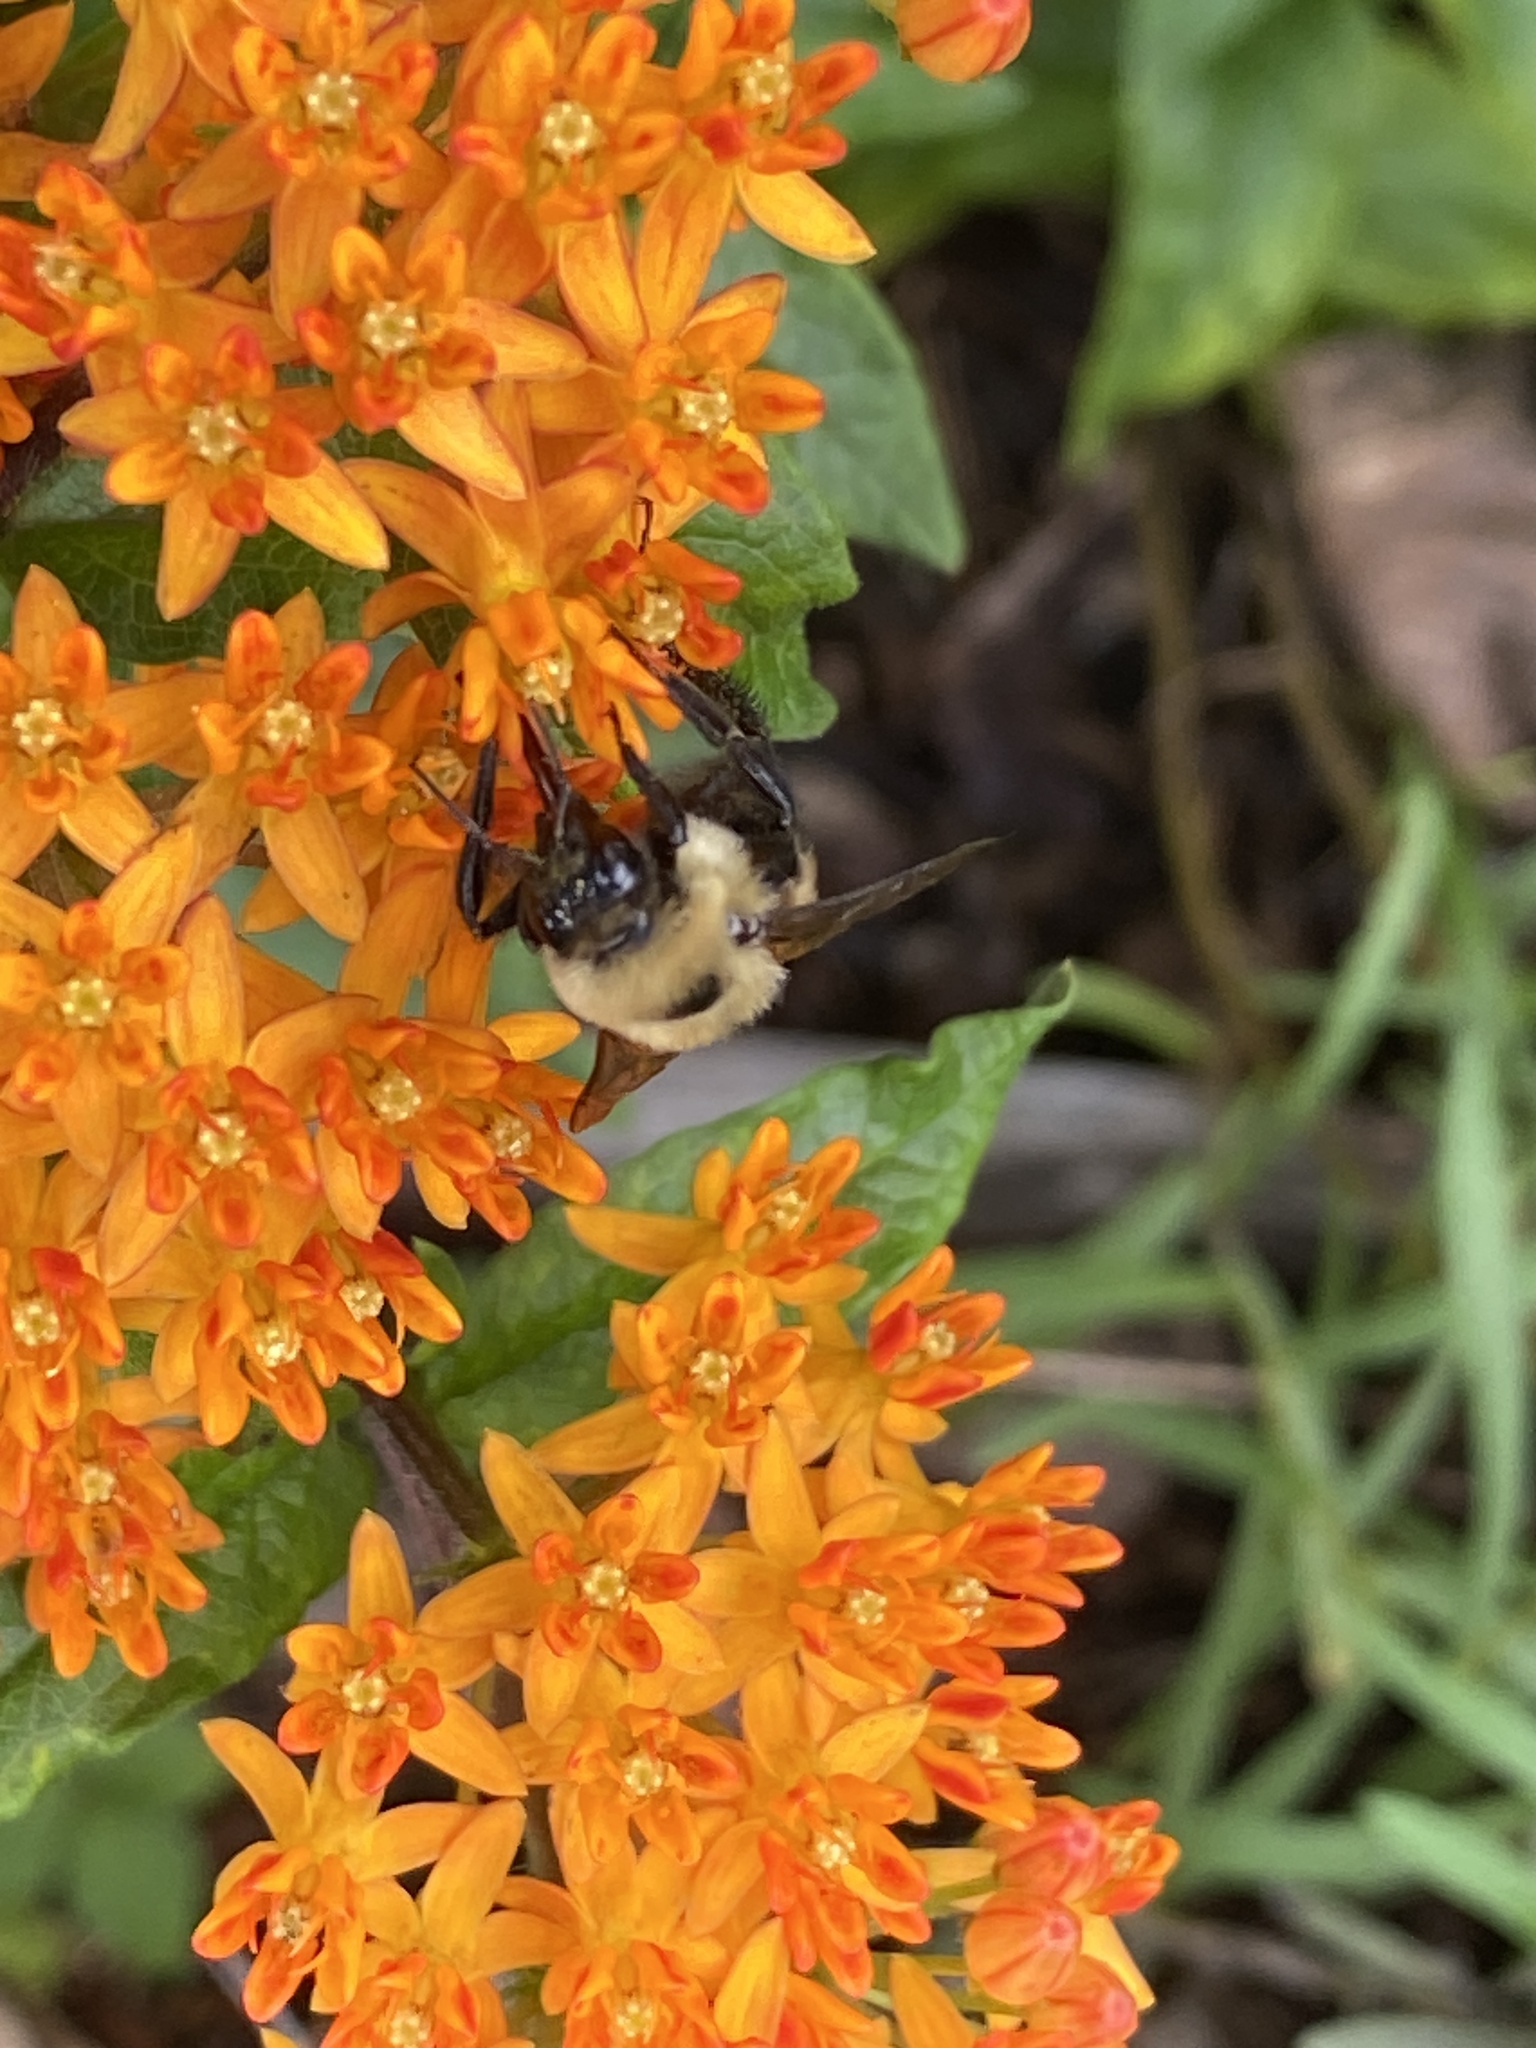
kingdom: Animalia
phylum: Arthropoda
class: Insecta
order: Hymenoptera
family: Apidae
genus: Bombus
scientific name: Bombus griseocollis
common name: Brown-belted bumble bee
